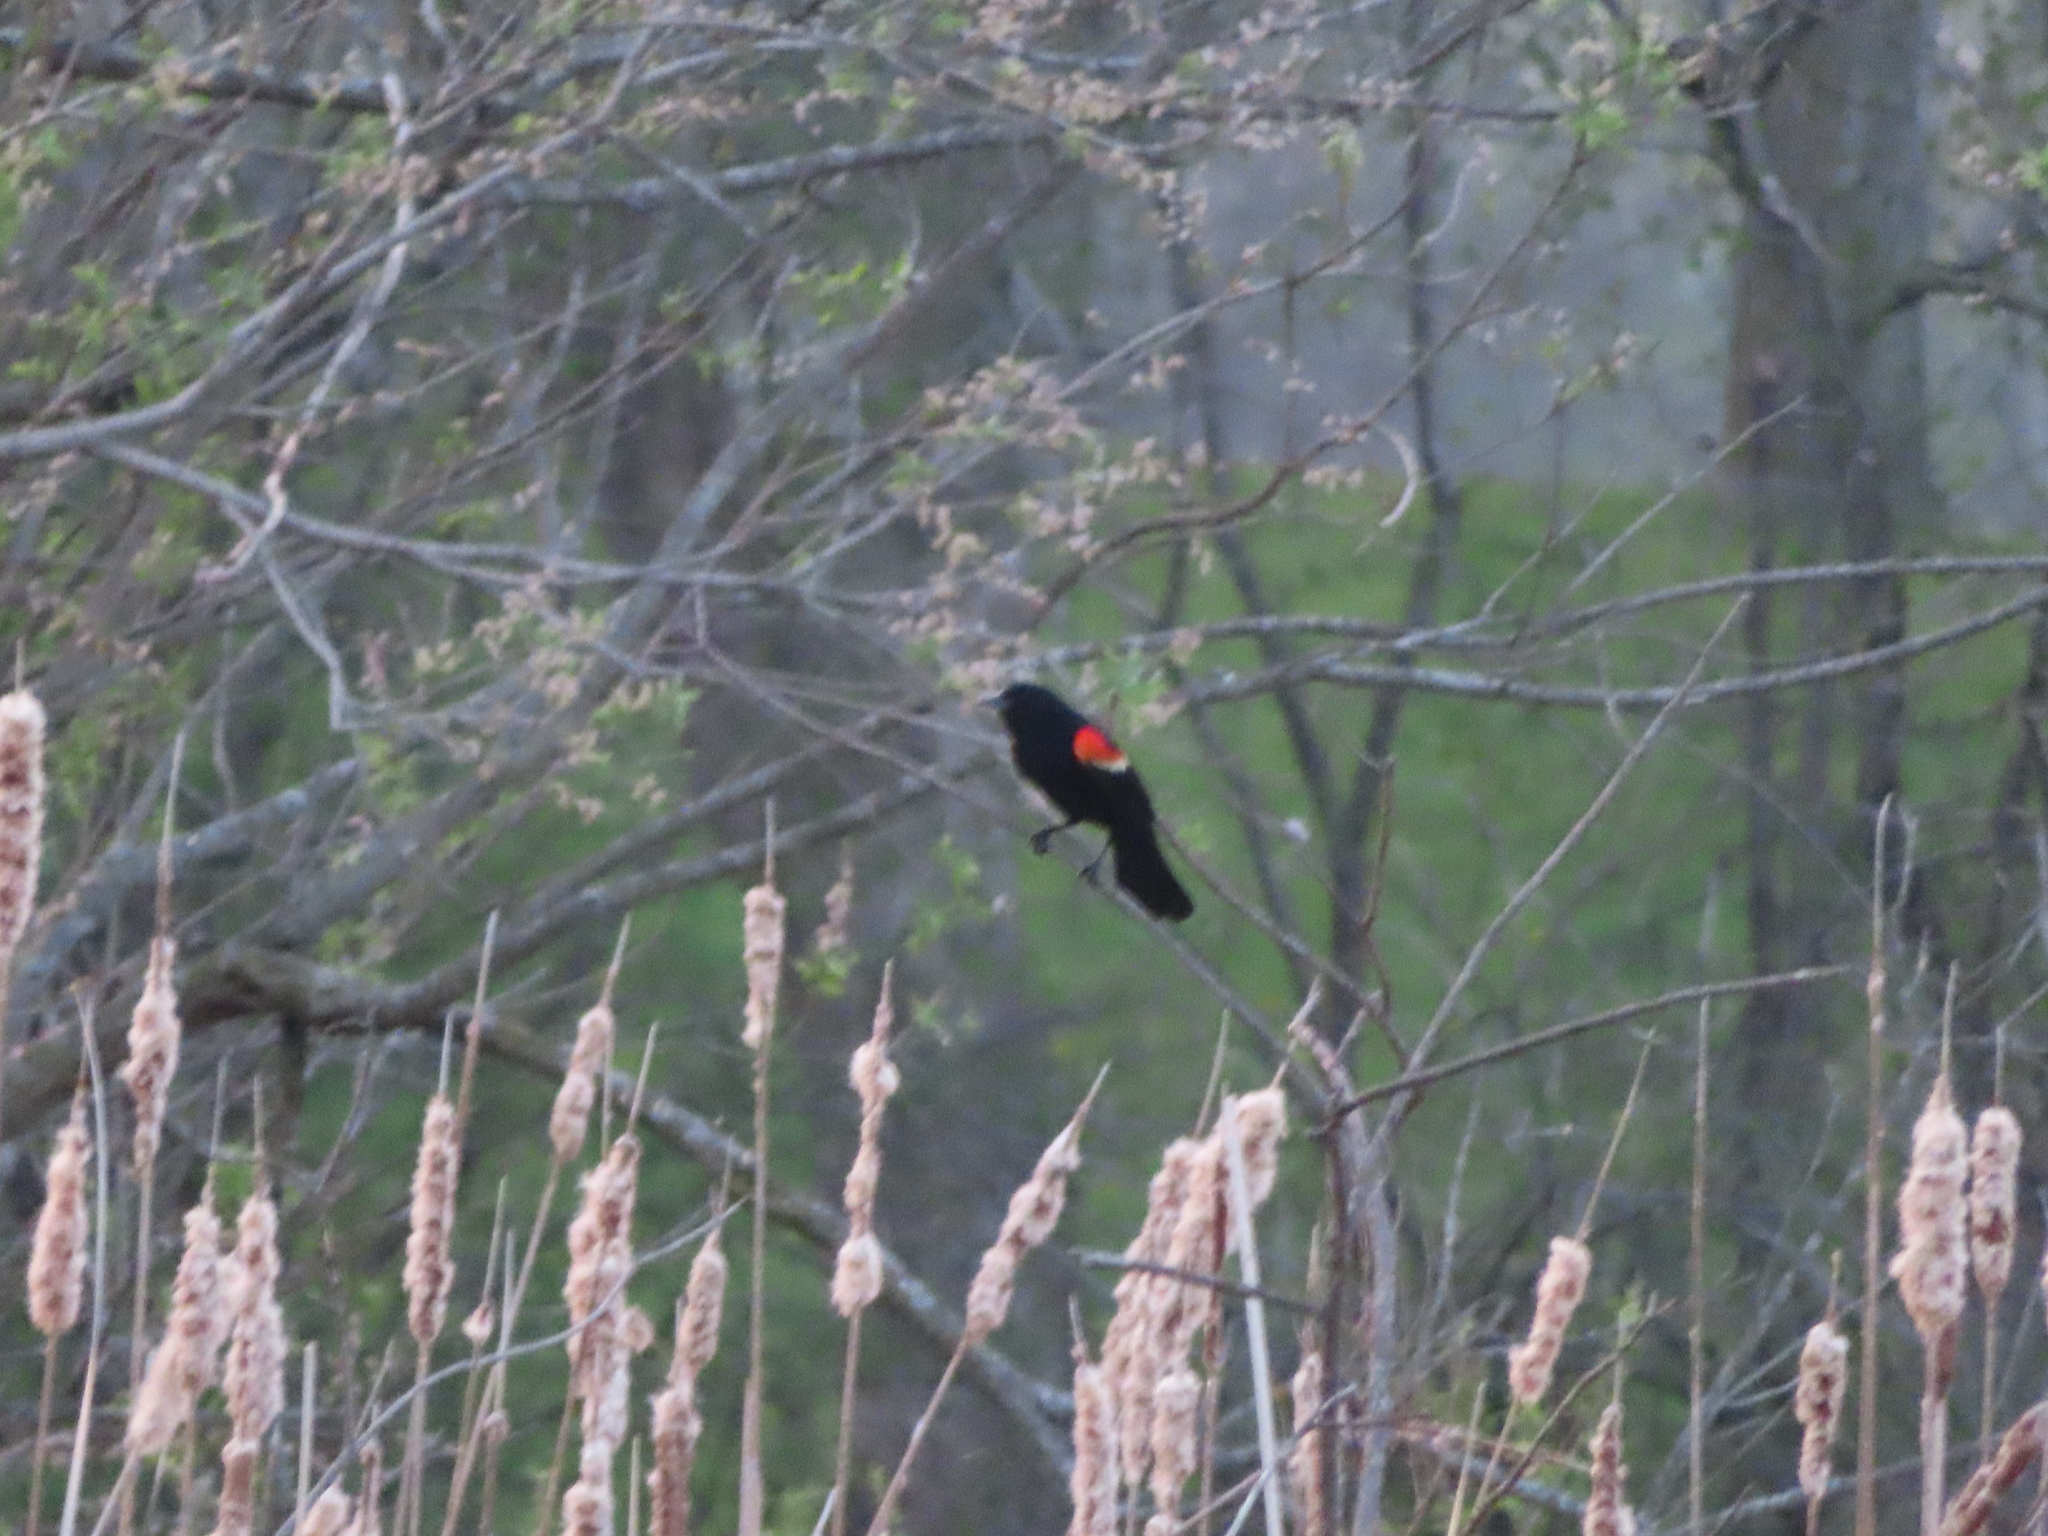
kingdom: Animalia
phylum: Chordata
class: Aves
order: Passeriformes
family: Icteridae
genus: Agelaius
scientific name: Agelaius phoeniceus
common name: Red-winged blackbird
